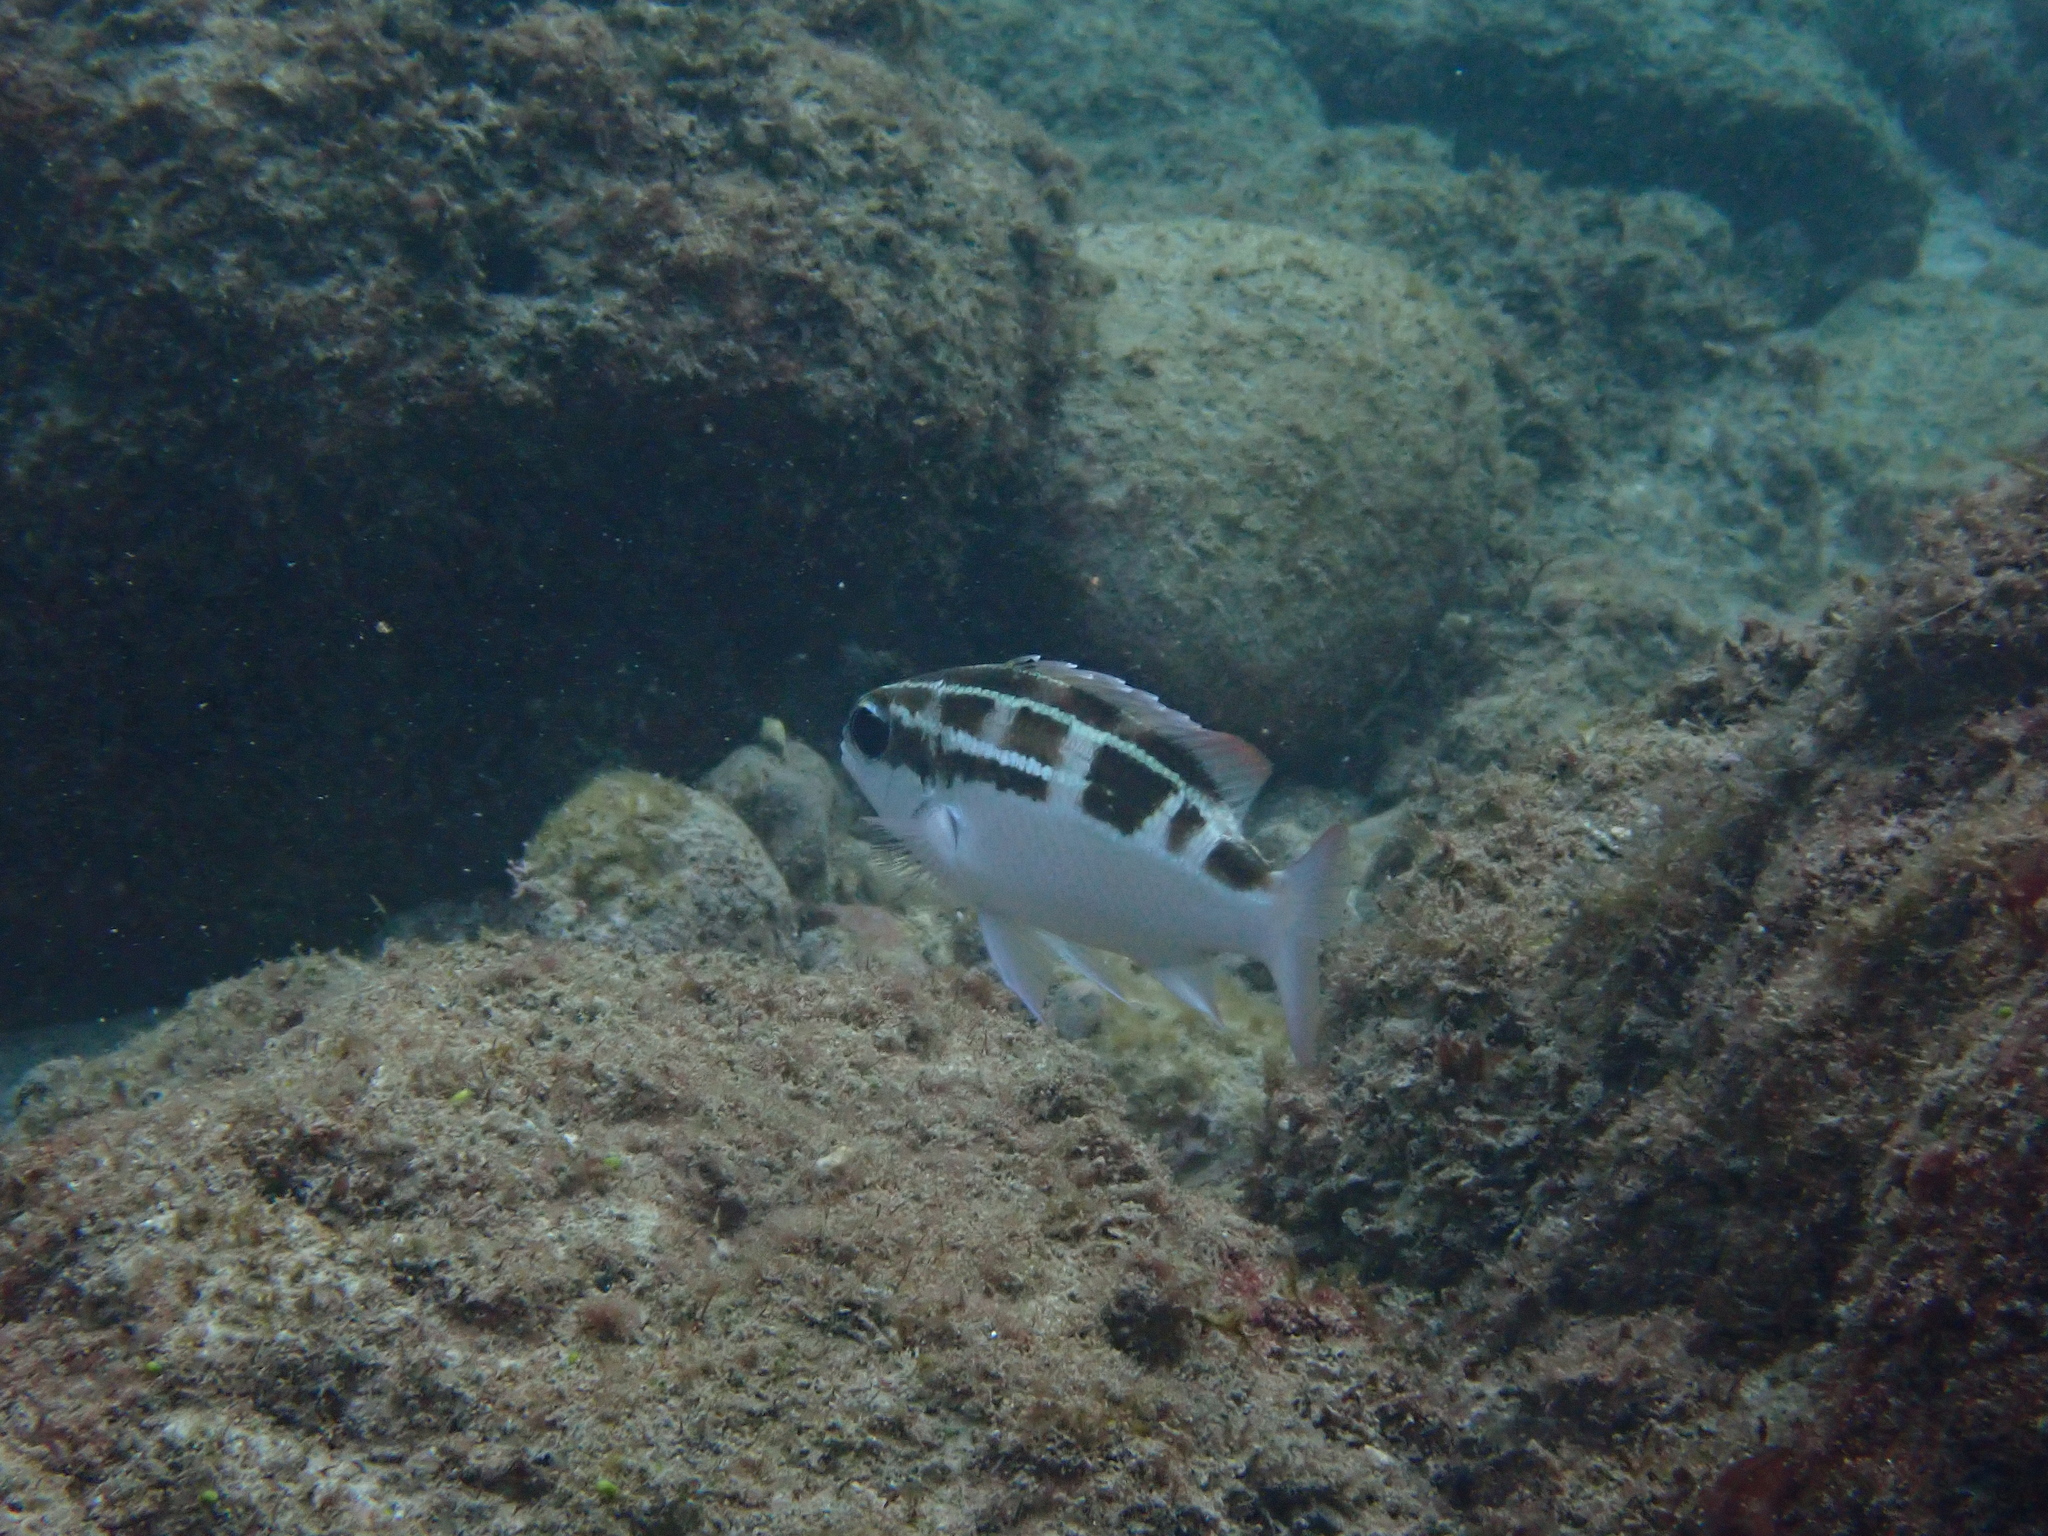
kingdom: Animalia
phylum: Chordata
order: Perciformes
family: Nemipteridae
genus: Scolopsis
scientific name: Scolopsis lineata
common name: Striped monocle bream
